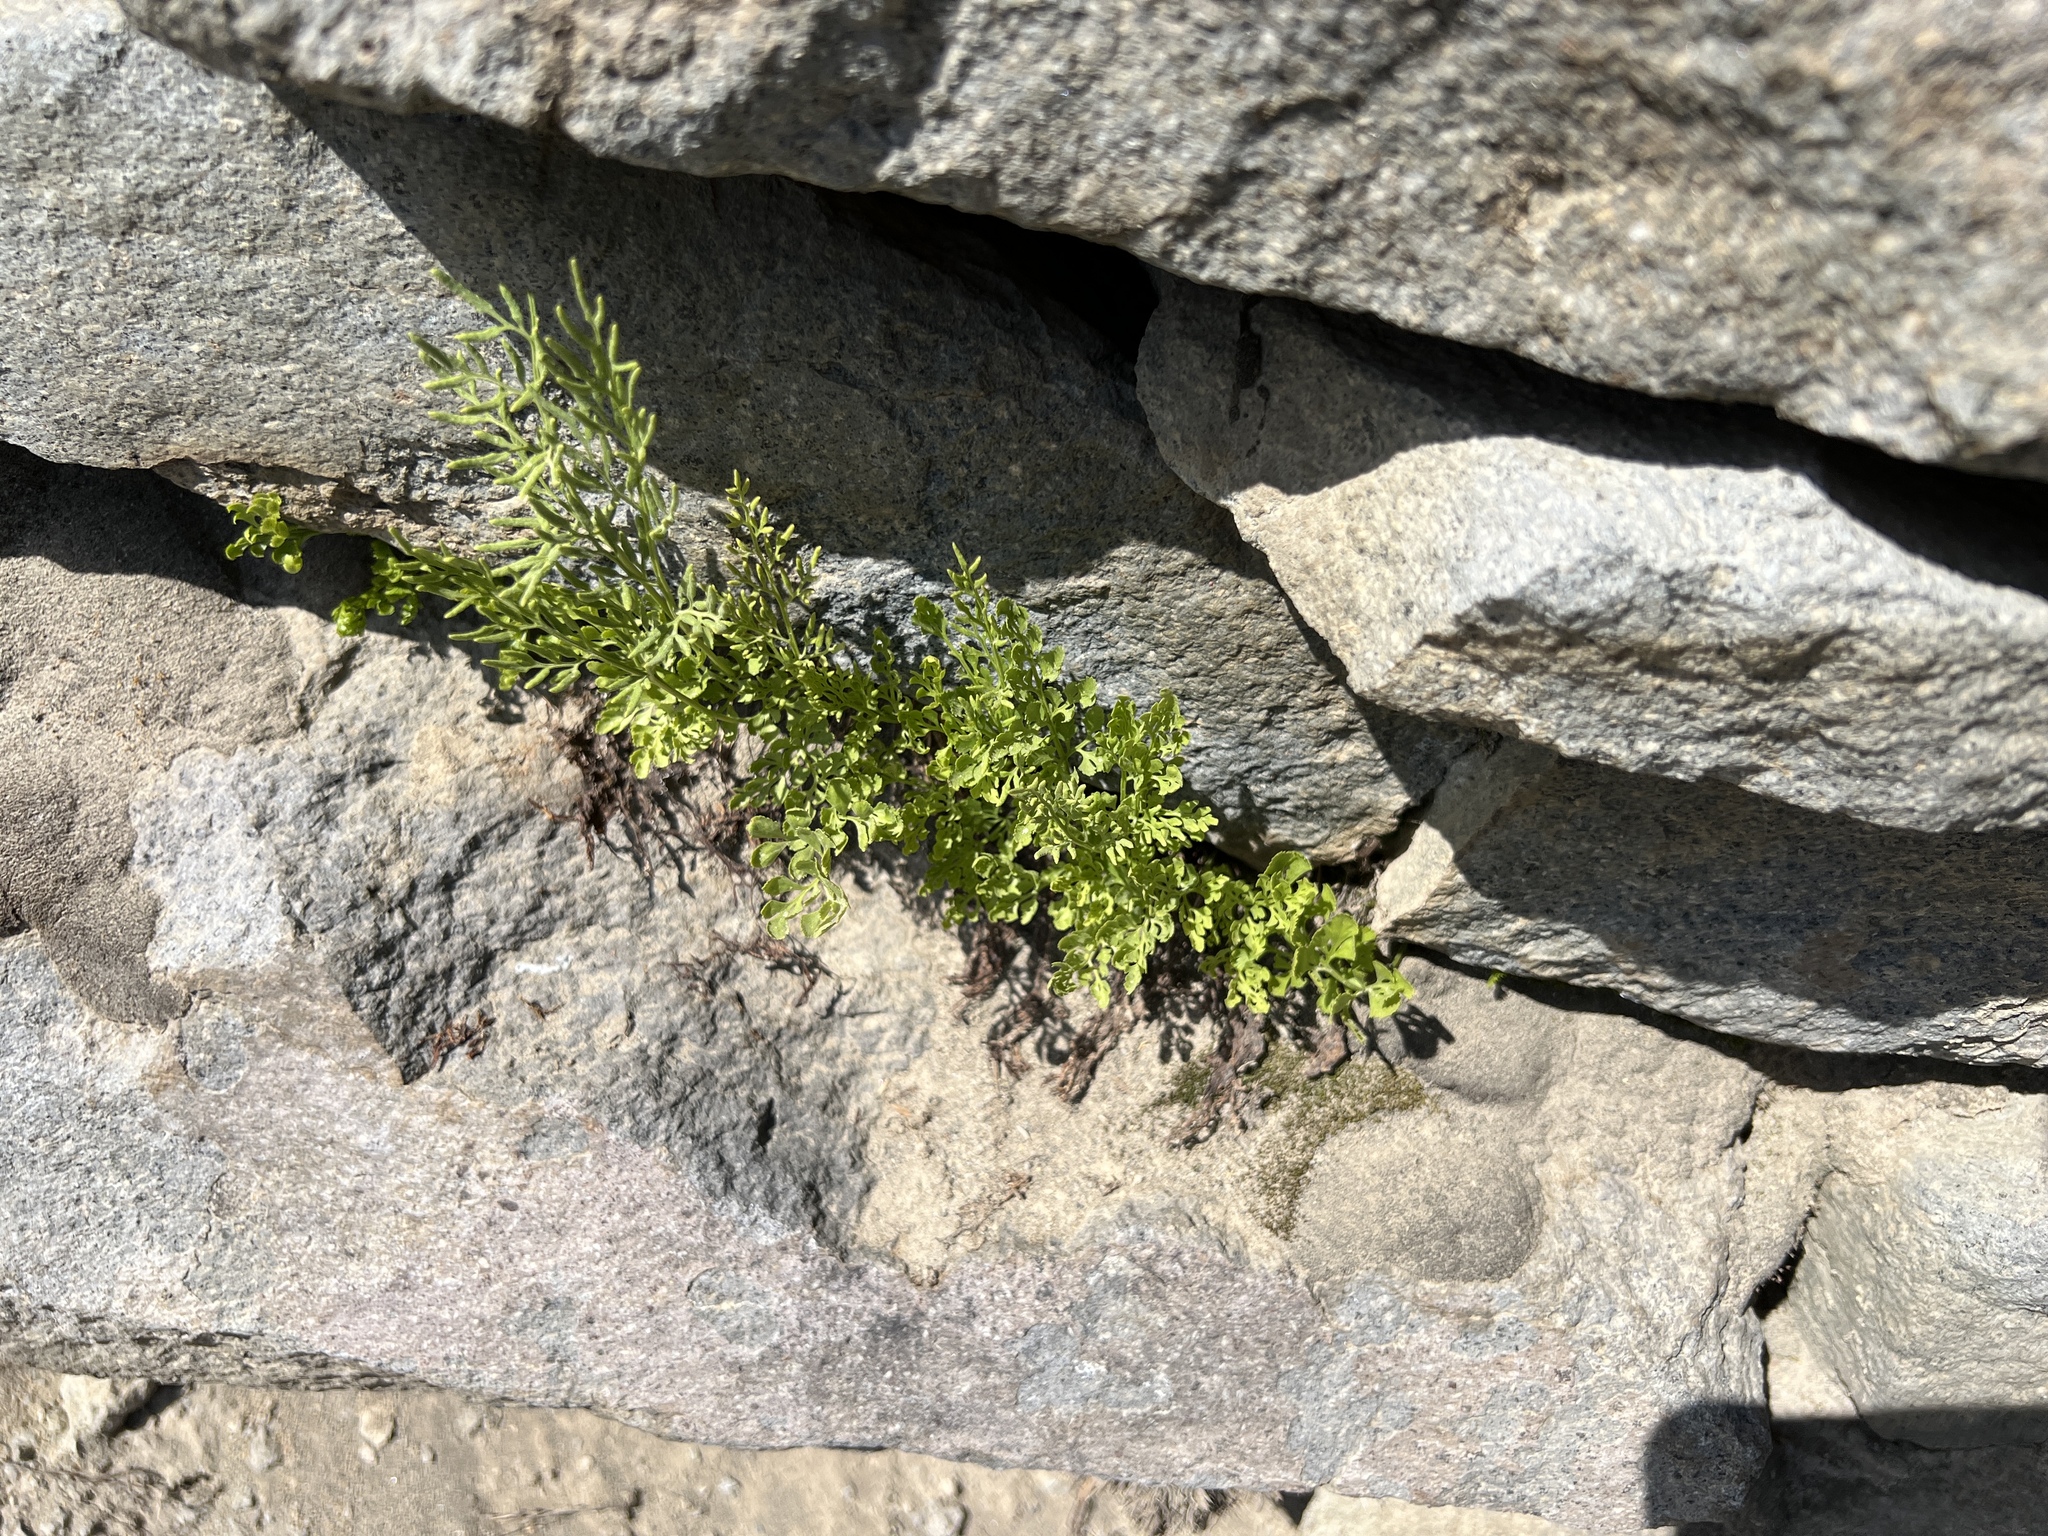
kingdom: Plantae
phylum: Tracheophyta
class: Polypodiopsida
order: Polypodiales
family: Pteridaceae
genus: Cryptogramma
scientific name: Cryptogramma cascadensis
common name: Cascade parsley fern
